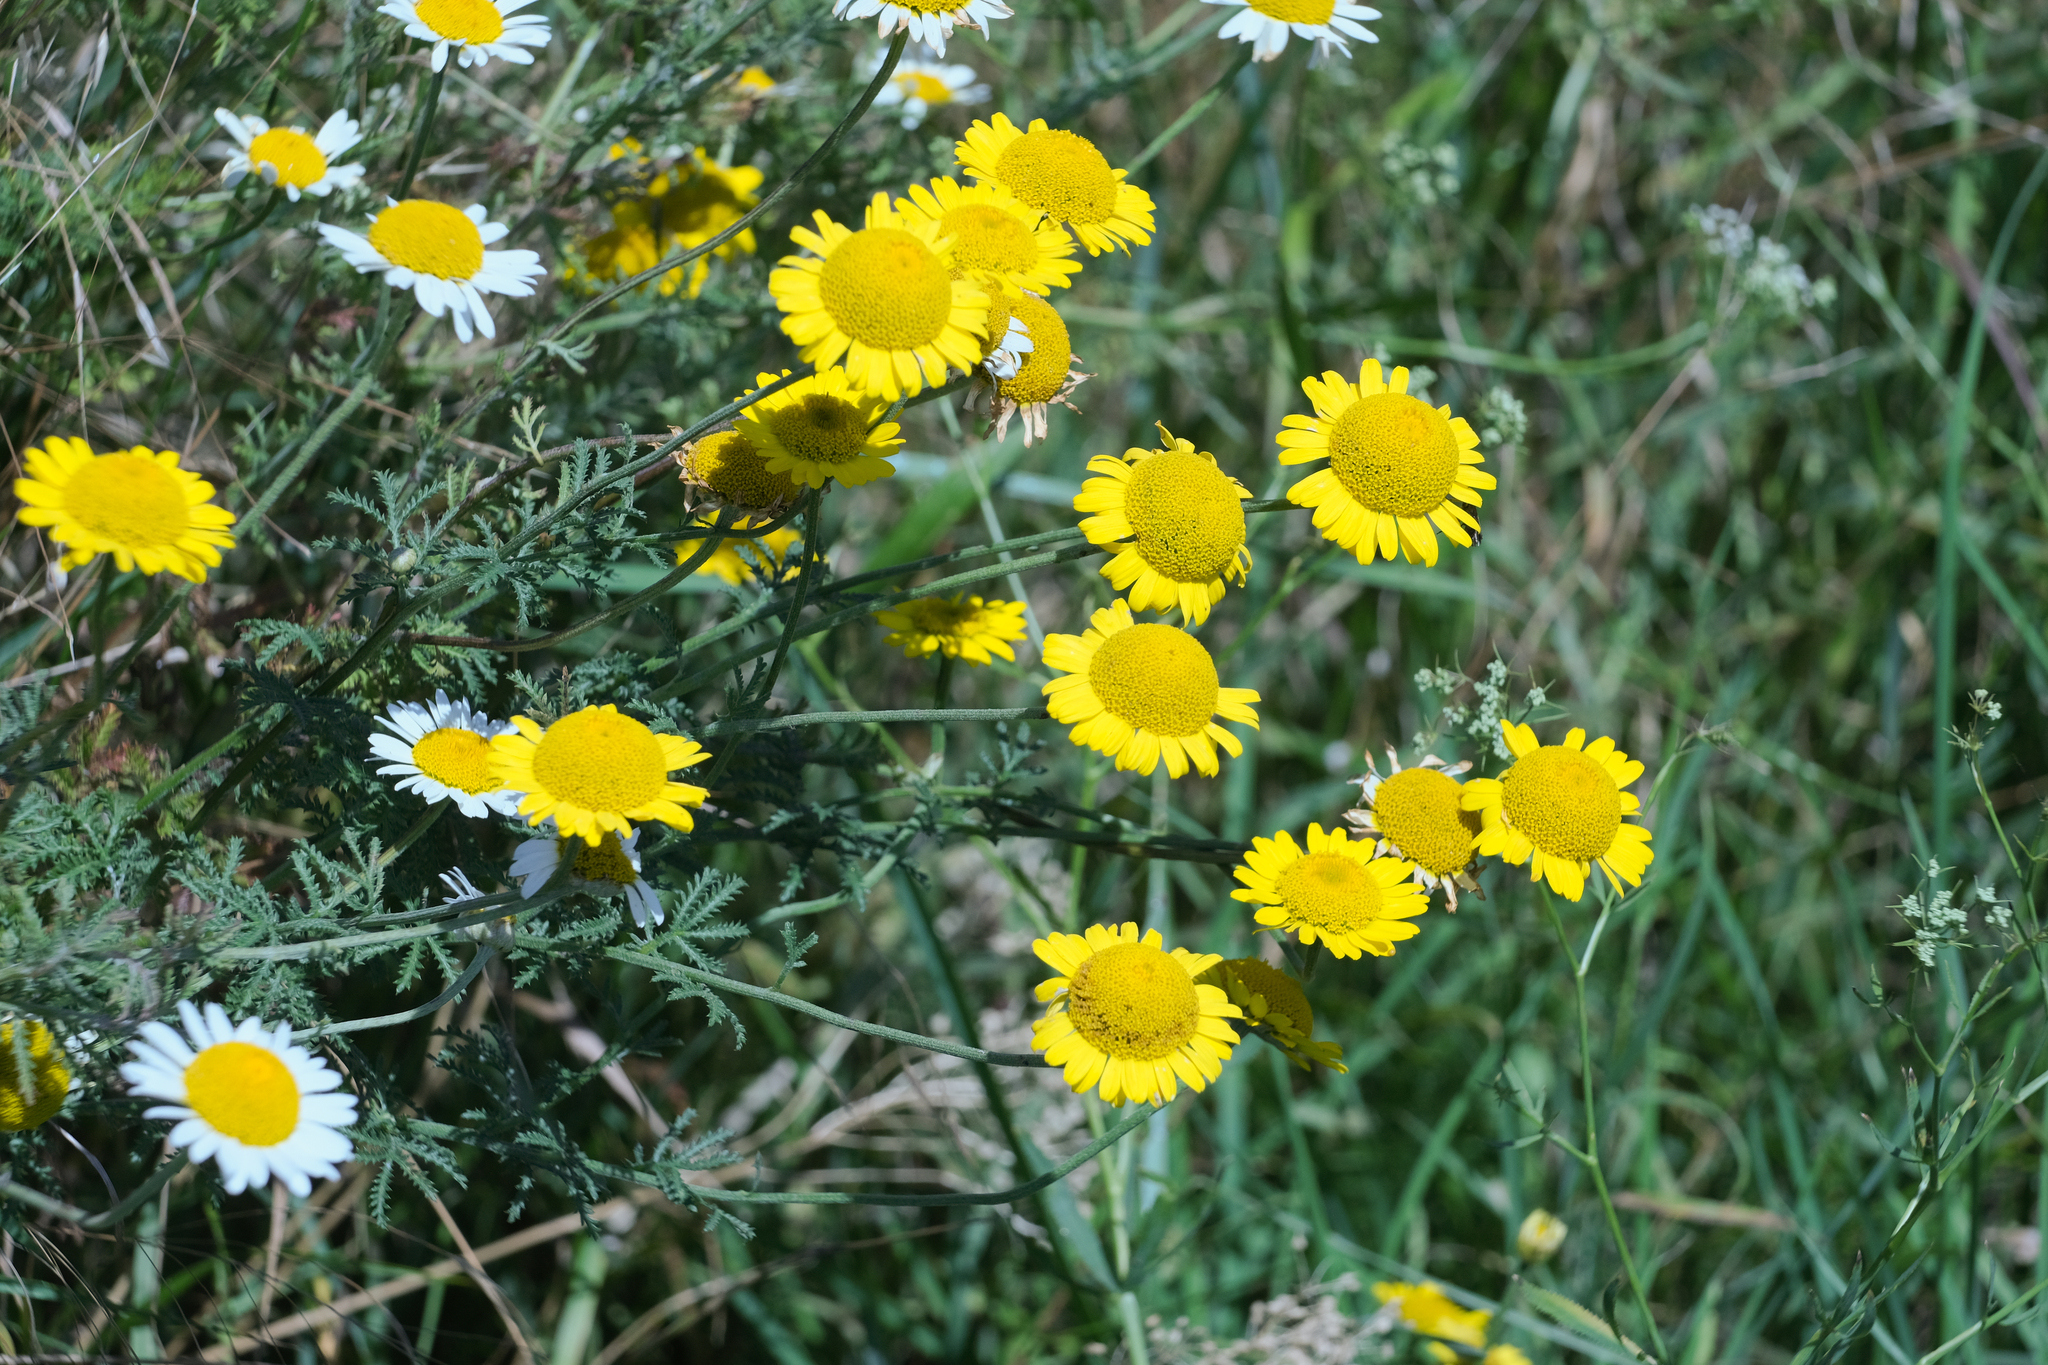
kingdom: Plantae
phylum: Tracheophyta
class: Magnoliopsida
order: Asterales
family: Asteraceae
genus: Cota
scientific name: Cota tinctoria
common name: Golden chamomile
